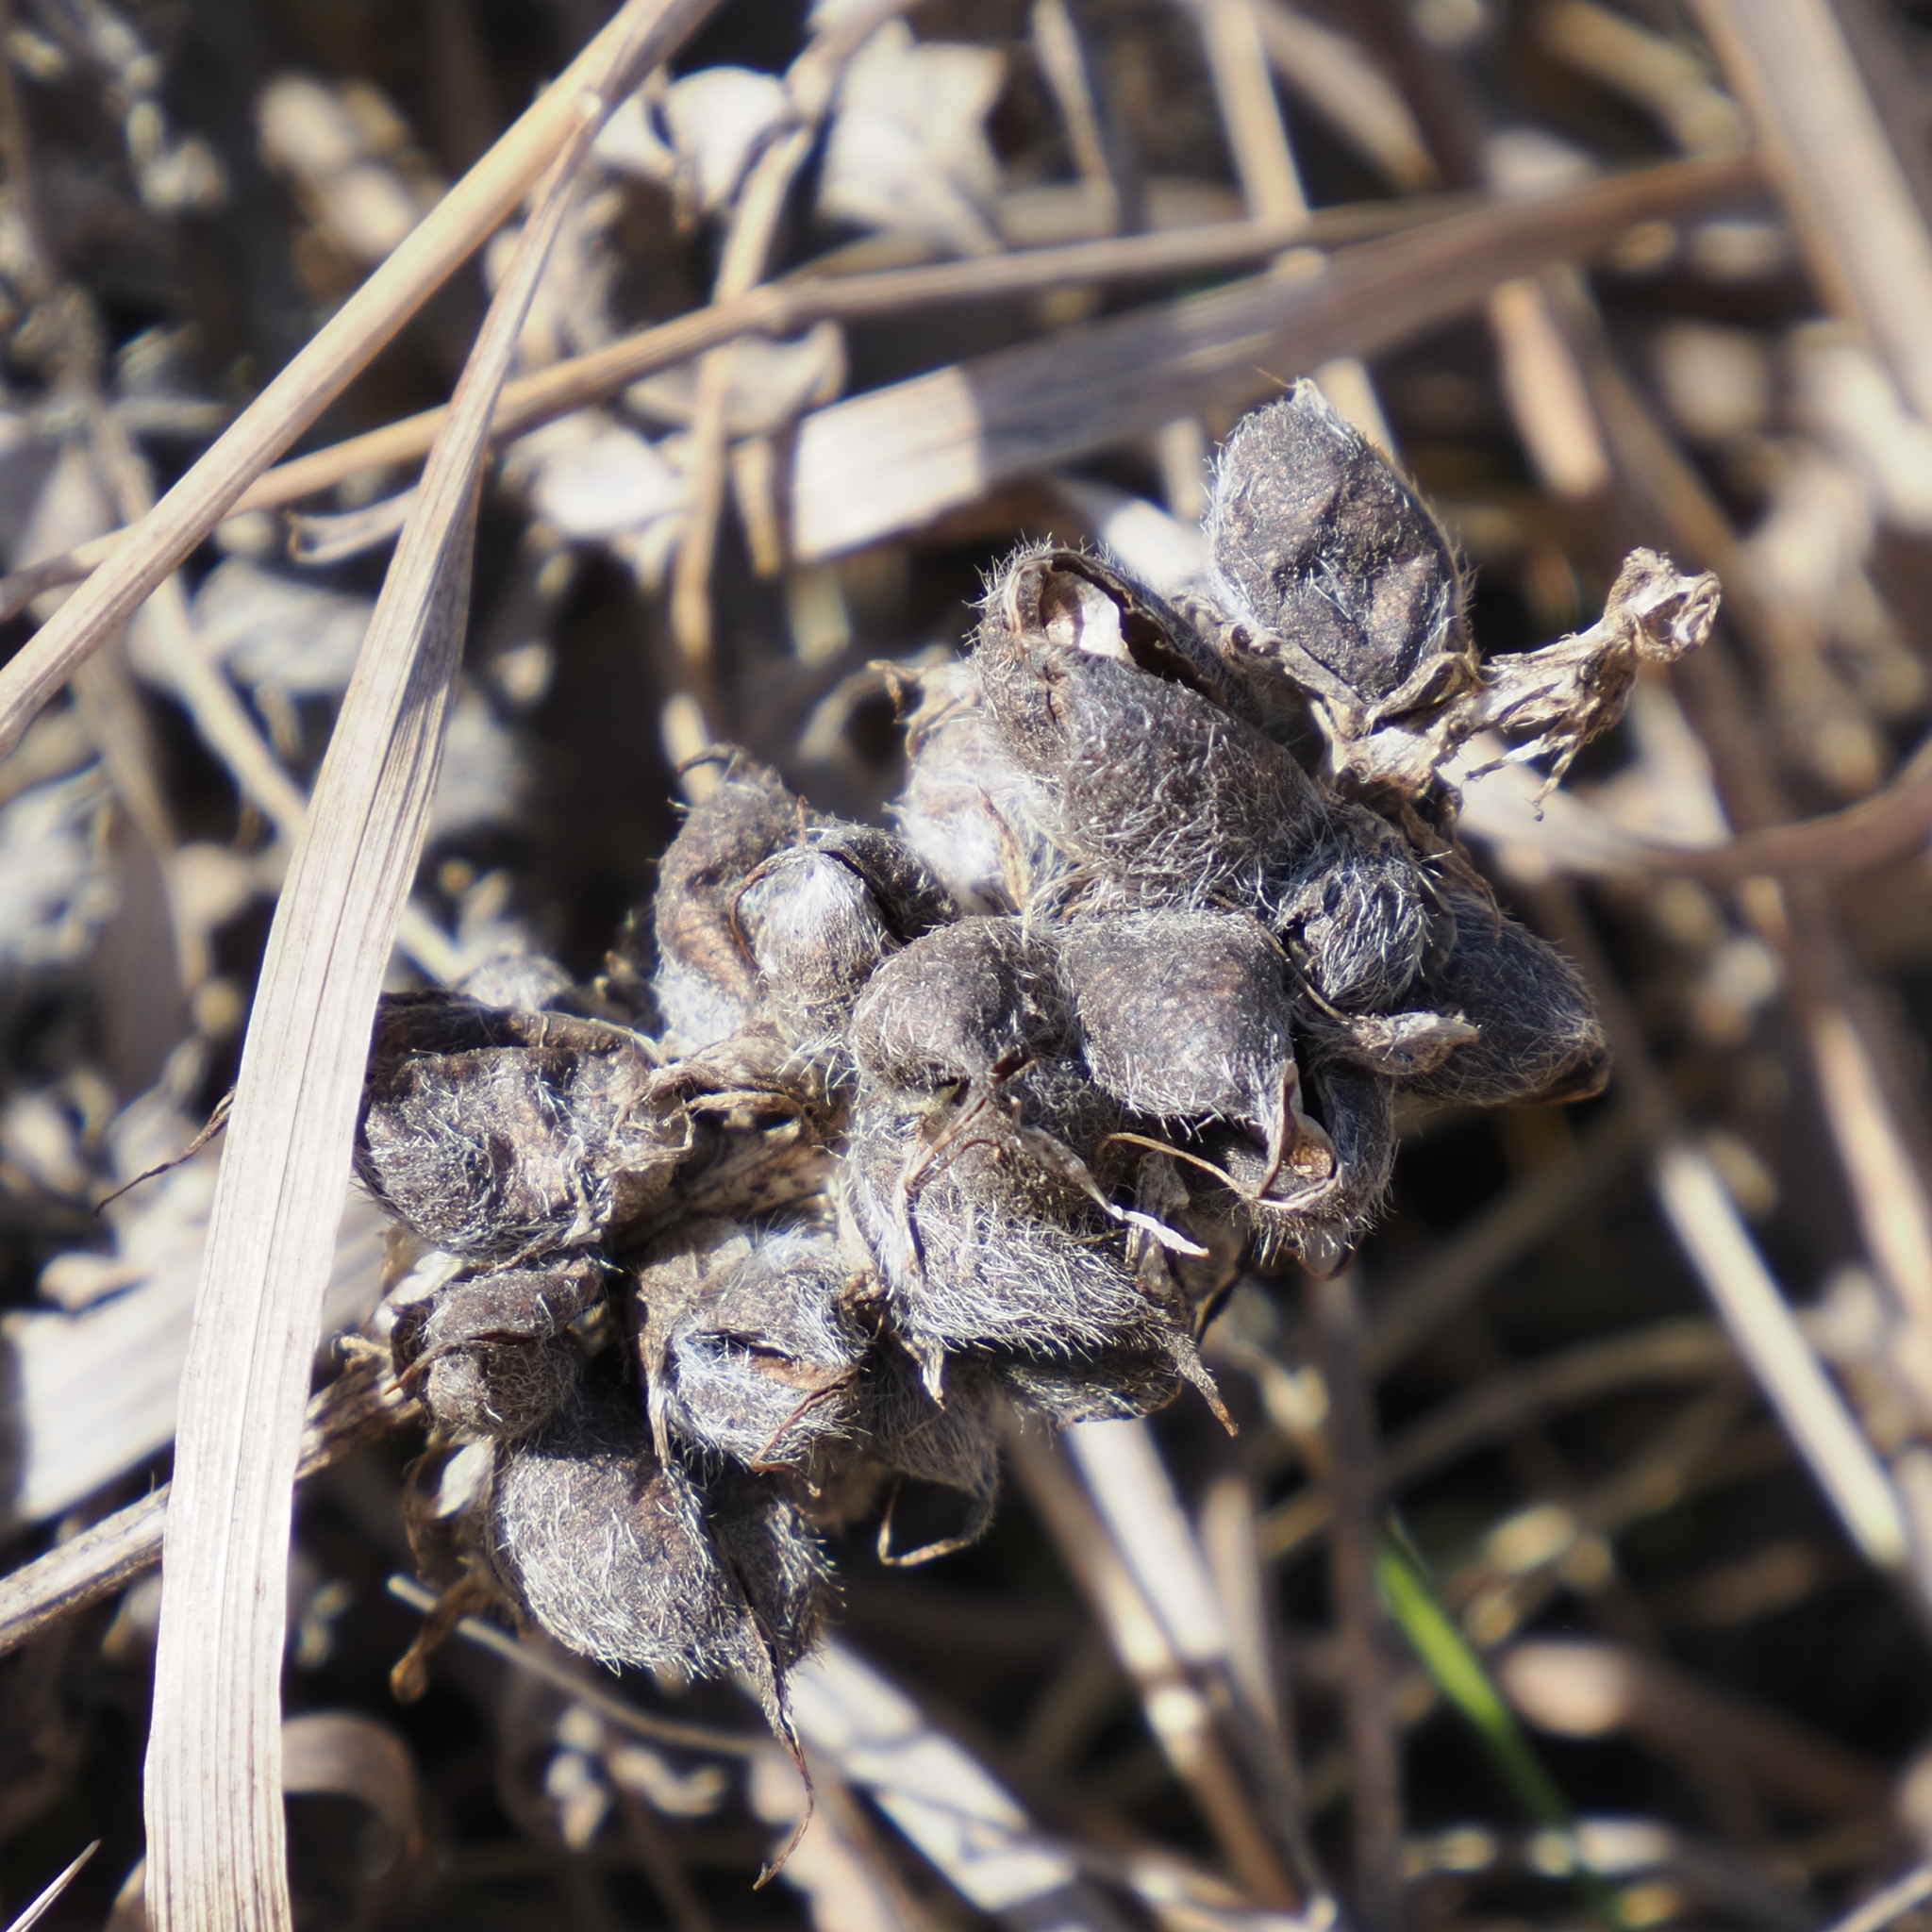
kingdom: Plantae
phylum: Tracheophyta
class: Magnoliopsida
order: Fabales
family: Fabaceae
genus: Astragalus
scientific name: Astragalus cicer
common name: Chick-pea milk-vetch
